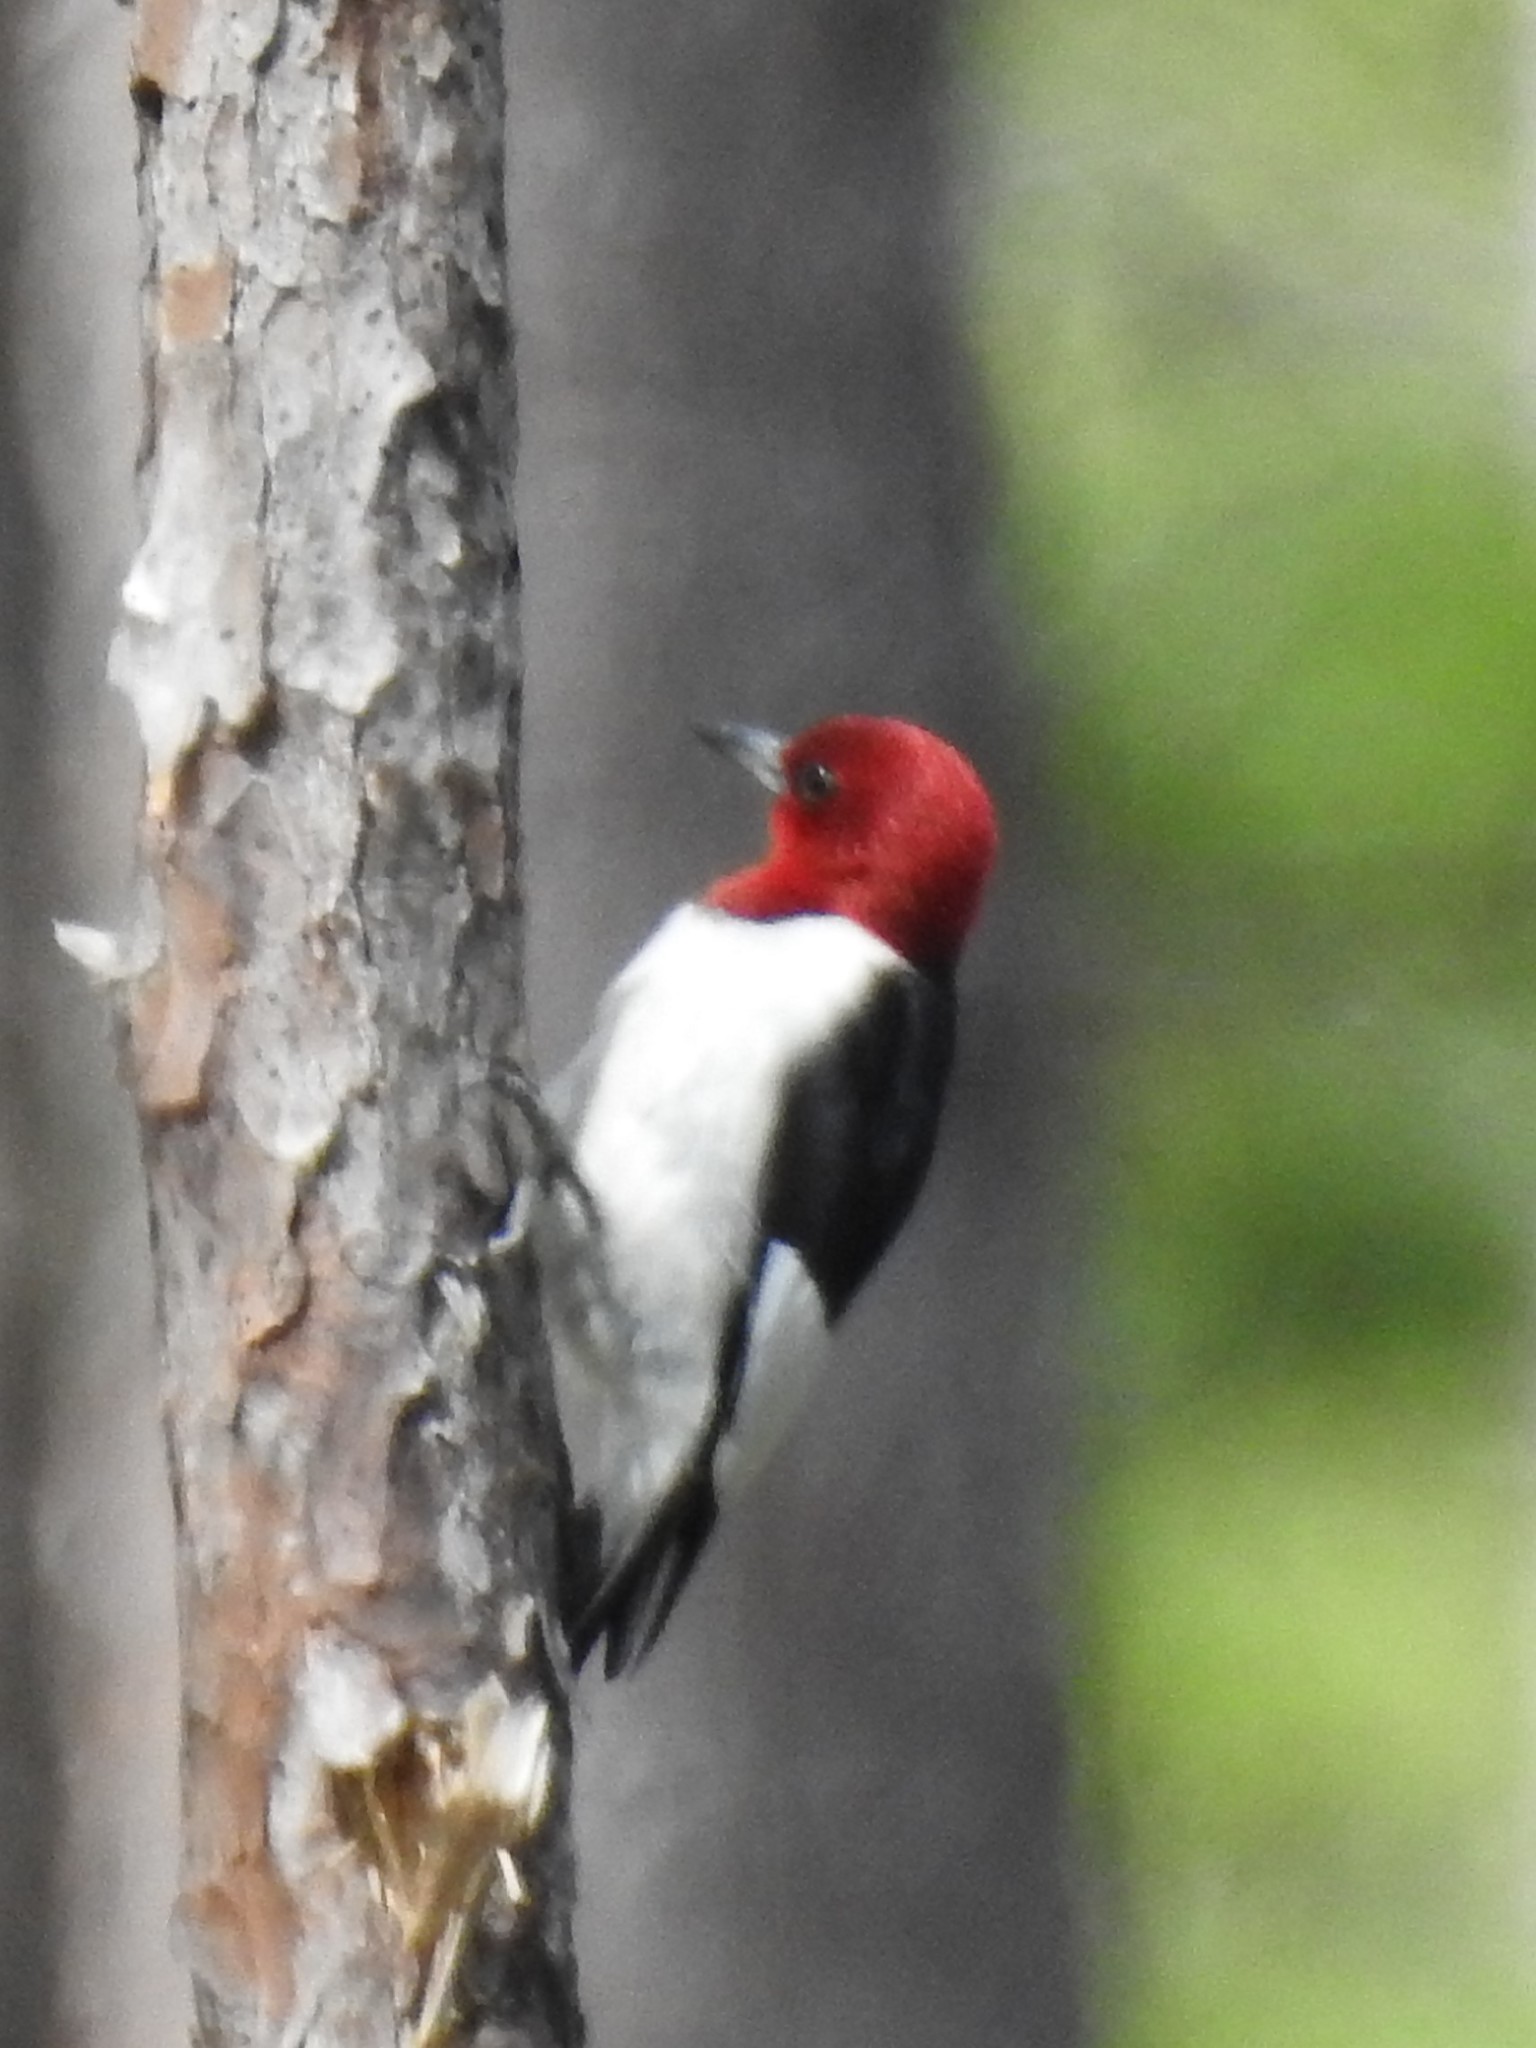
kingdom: Animalia
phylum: Chordata
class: Aves
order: Piciformes
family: Picidae
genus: Melanerpes
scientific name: Melanerpes erythrocephalus
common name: Red-headed woodpecker
